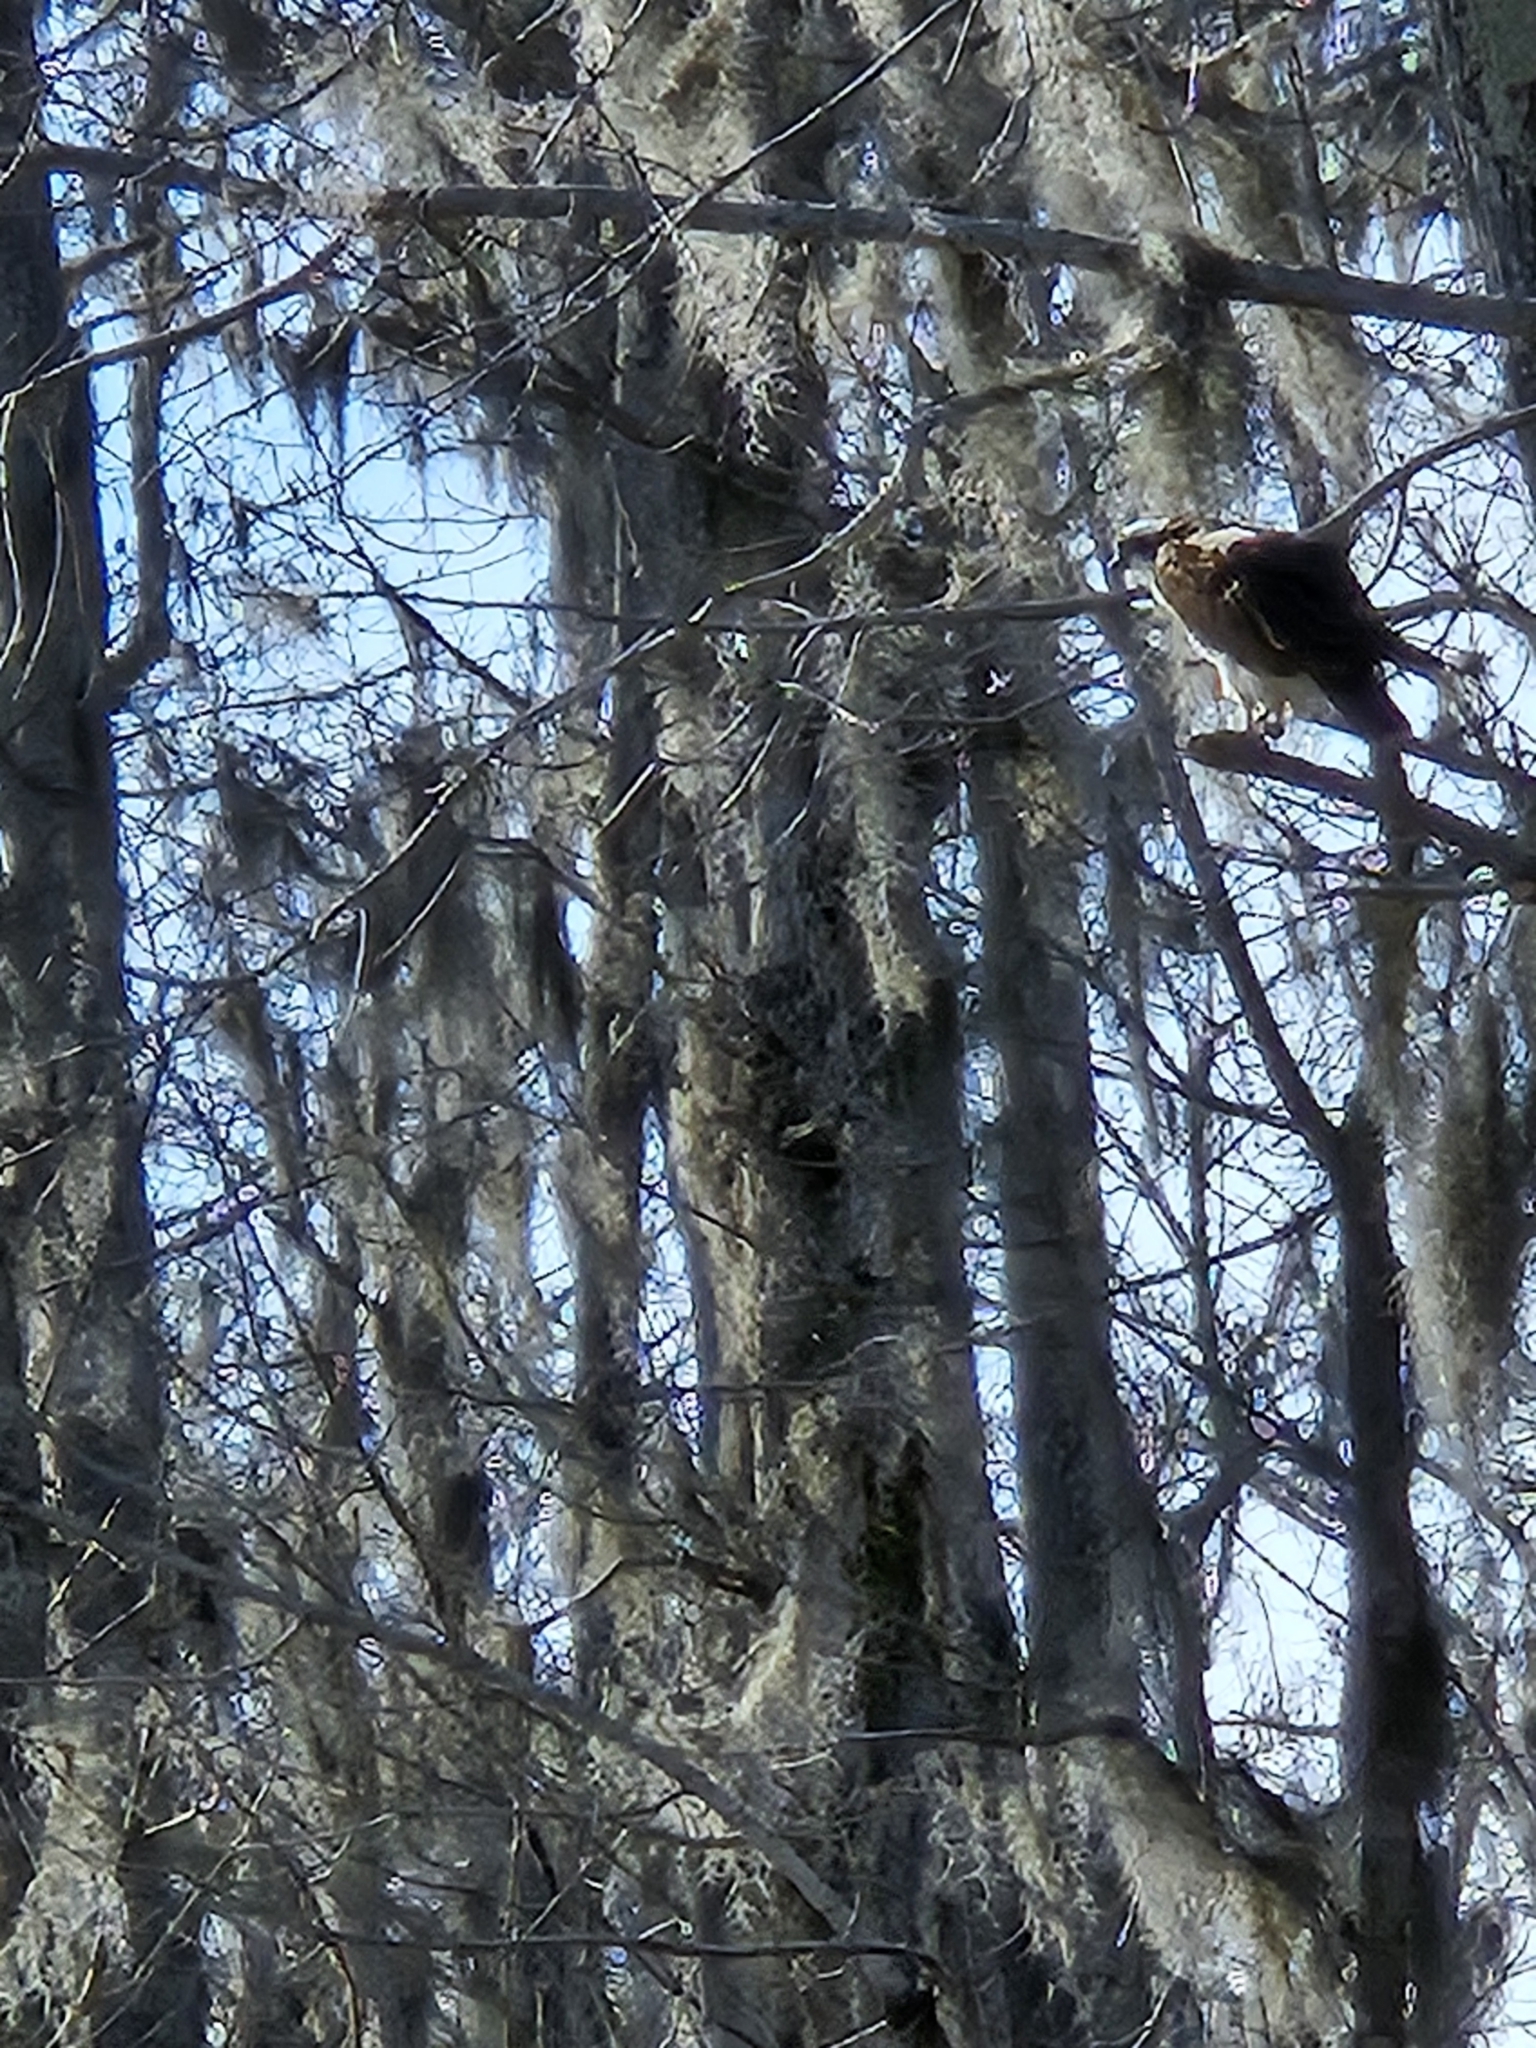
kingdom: Animalia
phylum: Chordata
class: Aves
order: Accipitriformes
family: Pandionidae
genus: Pandion
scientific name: Pandion haliaetus
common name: Osprey
